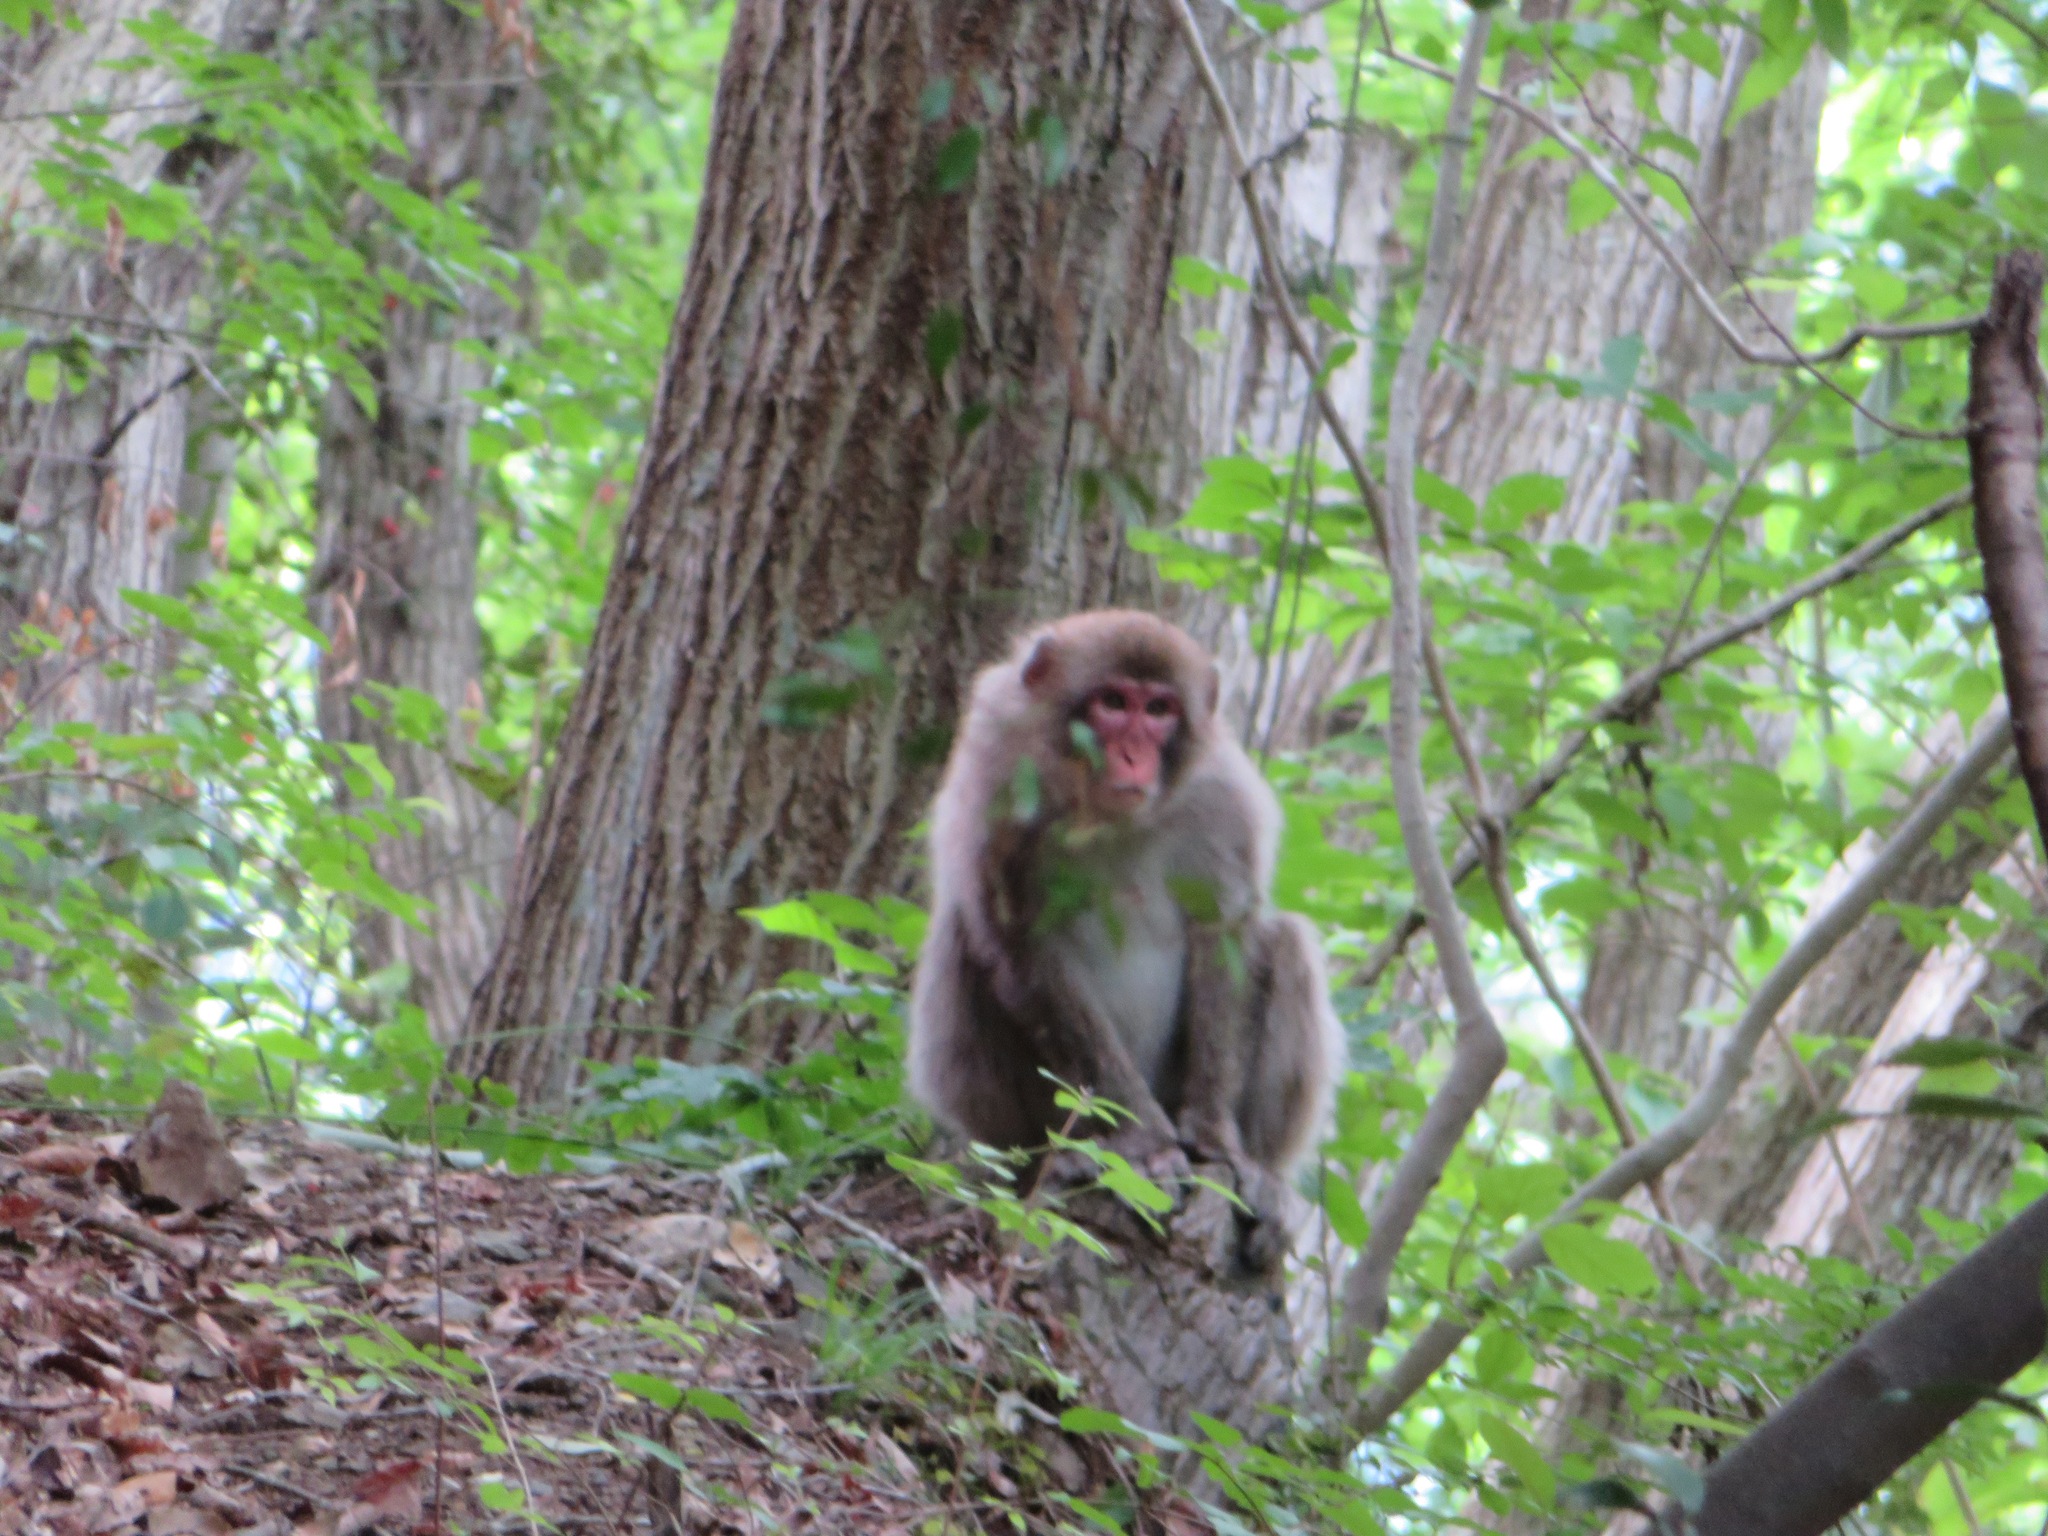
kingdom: Animalia
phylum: Chordata
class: Mammalia
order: Primates
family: Cercopithecidae
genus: Macaca
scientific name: Macaca fuscata
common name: Japanese macaque
